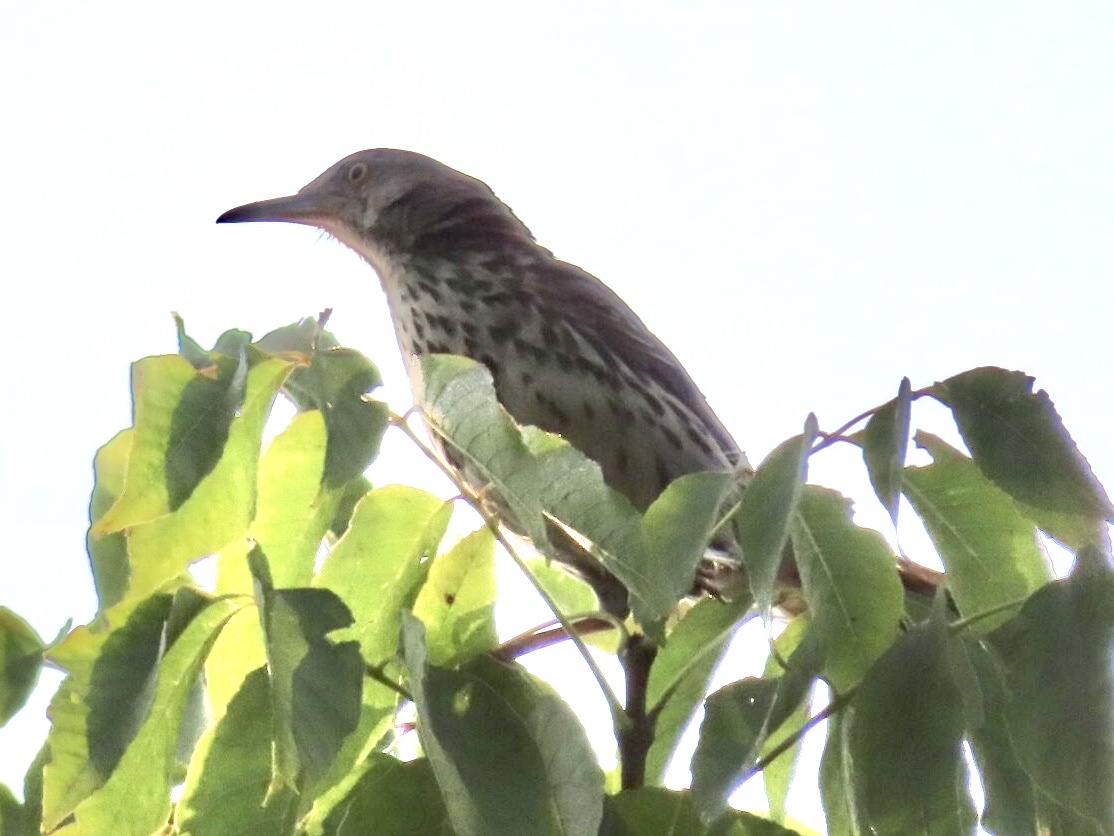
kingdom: Animalia
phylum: Chordata
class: Aves
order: Passeriformes
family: Mimidae
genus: Toxostoma
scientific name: Toxostoma rufum
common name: Brown thrasher
